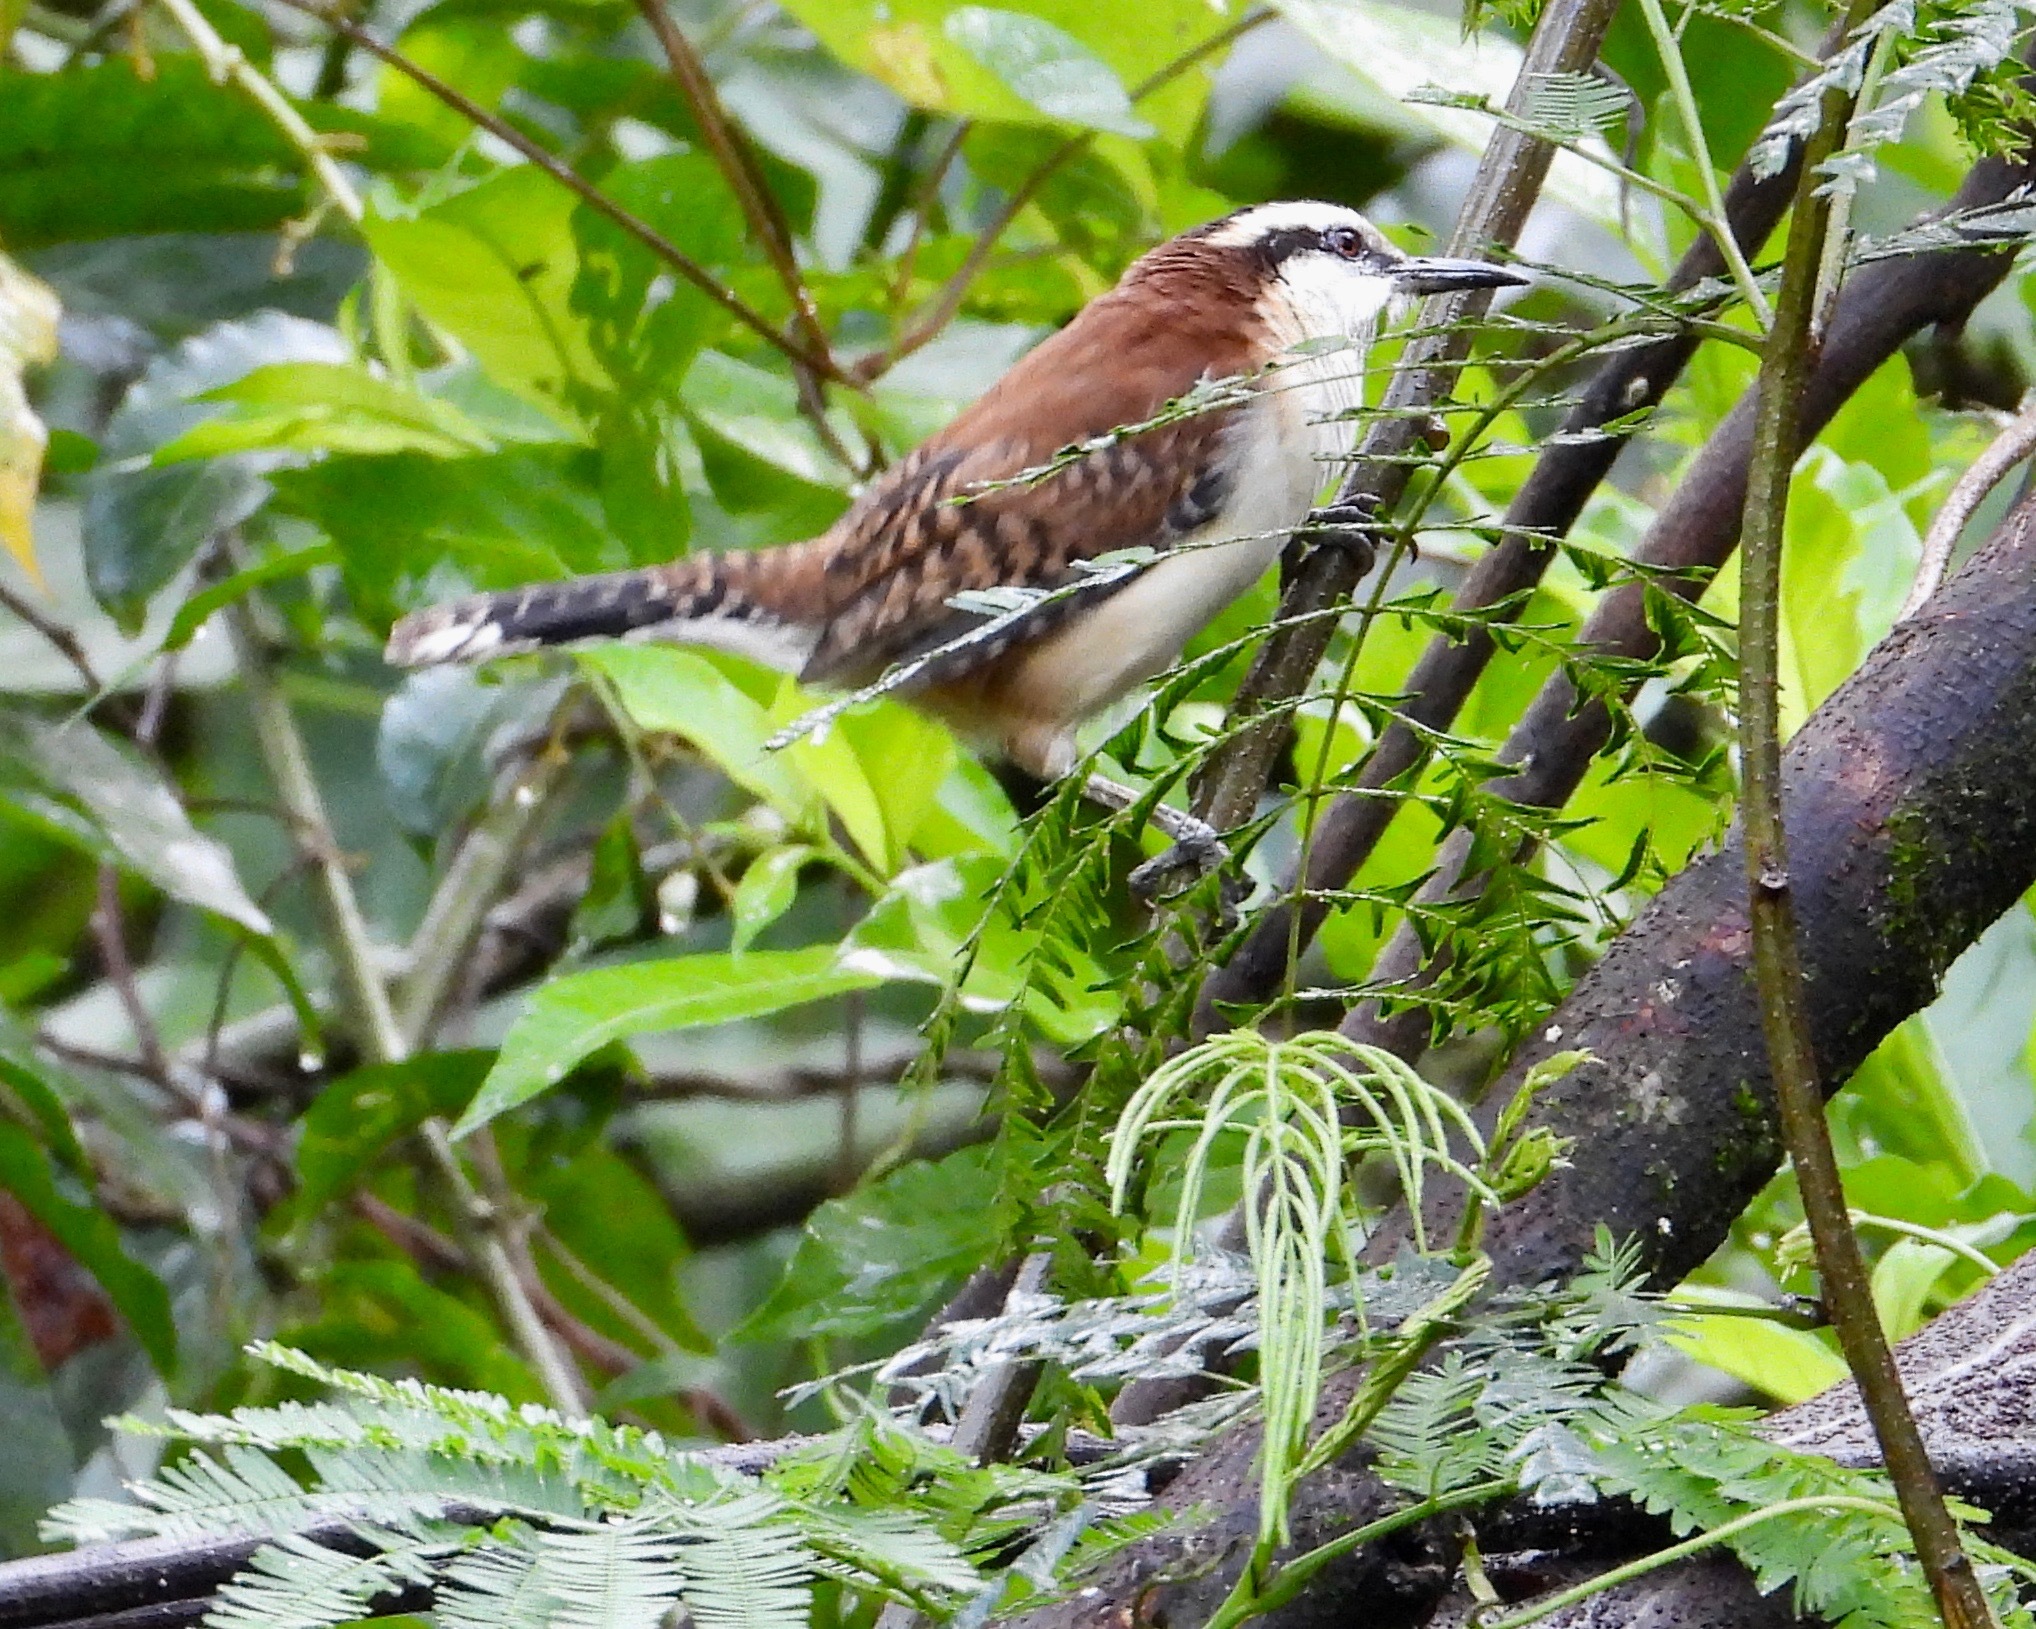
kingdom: Animalia
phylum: Chordata
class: Aves
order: Passeriformes
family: Troglodytidae
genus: Campylorhynchus
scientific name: Campylorhynchus rufinucha
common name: Rufous-naped wren
